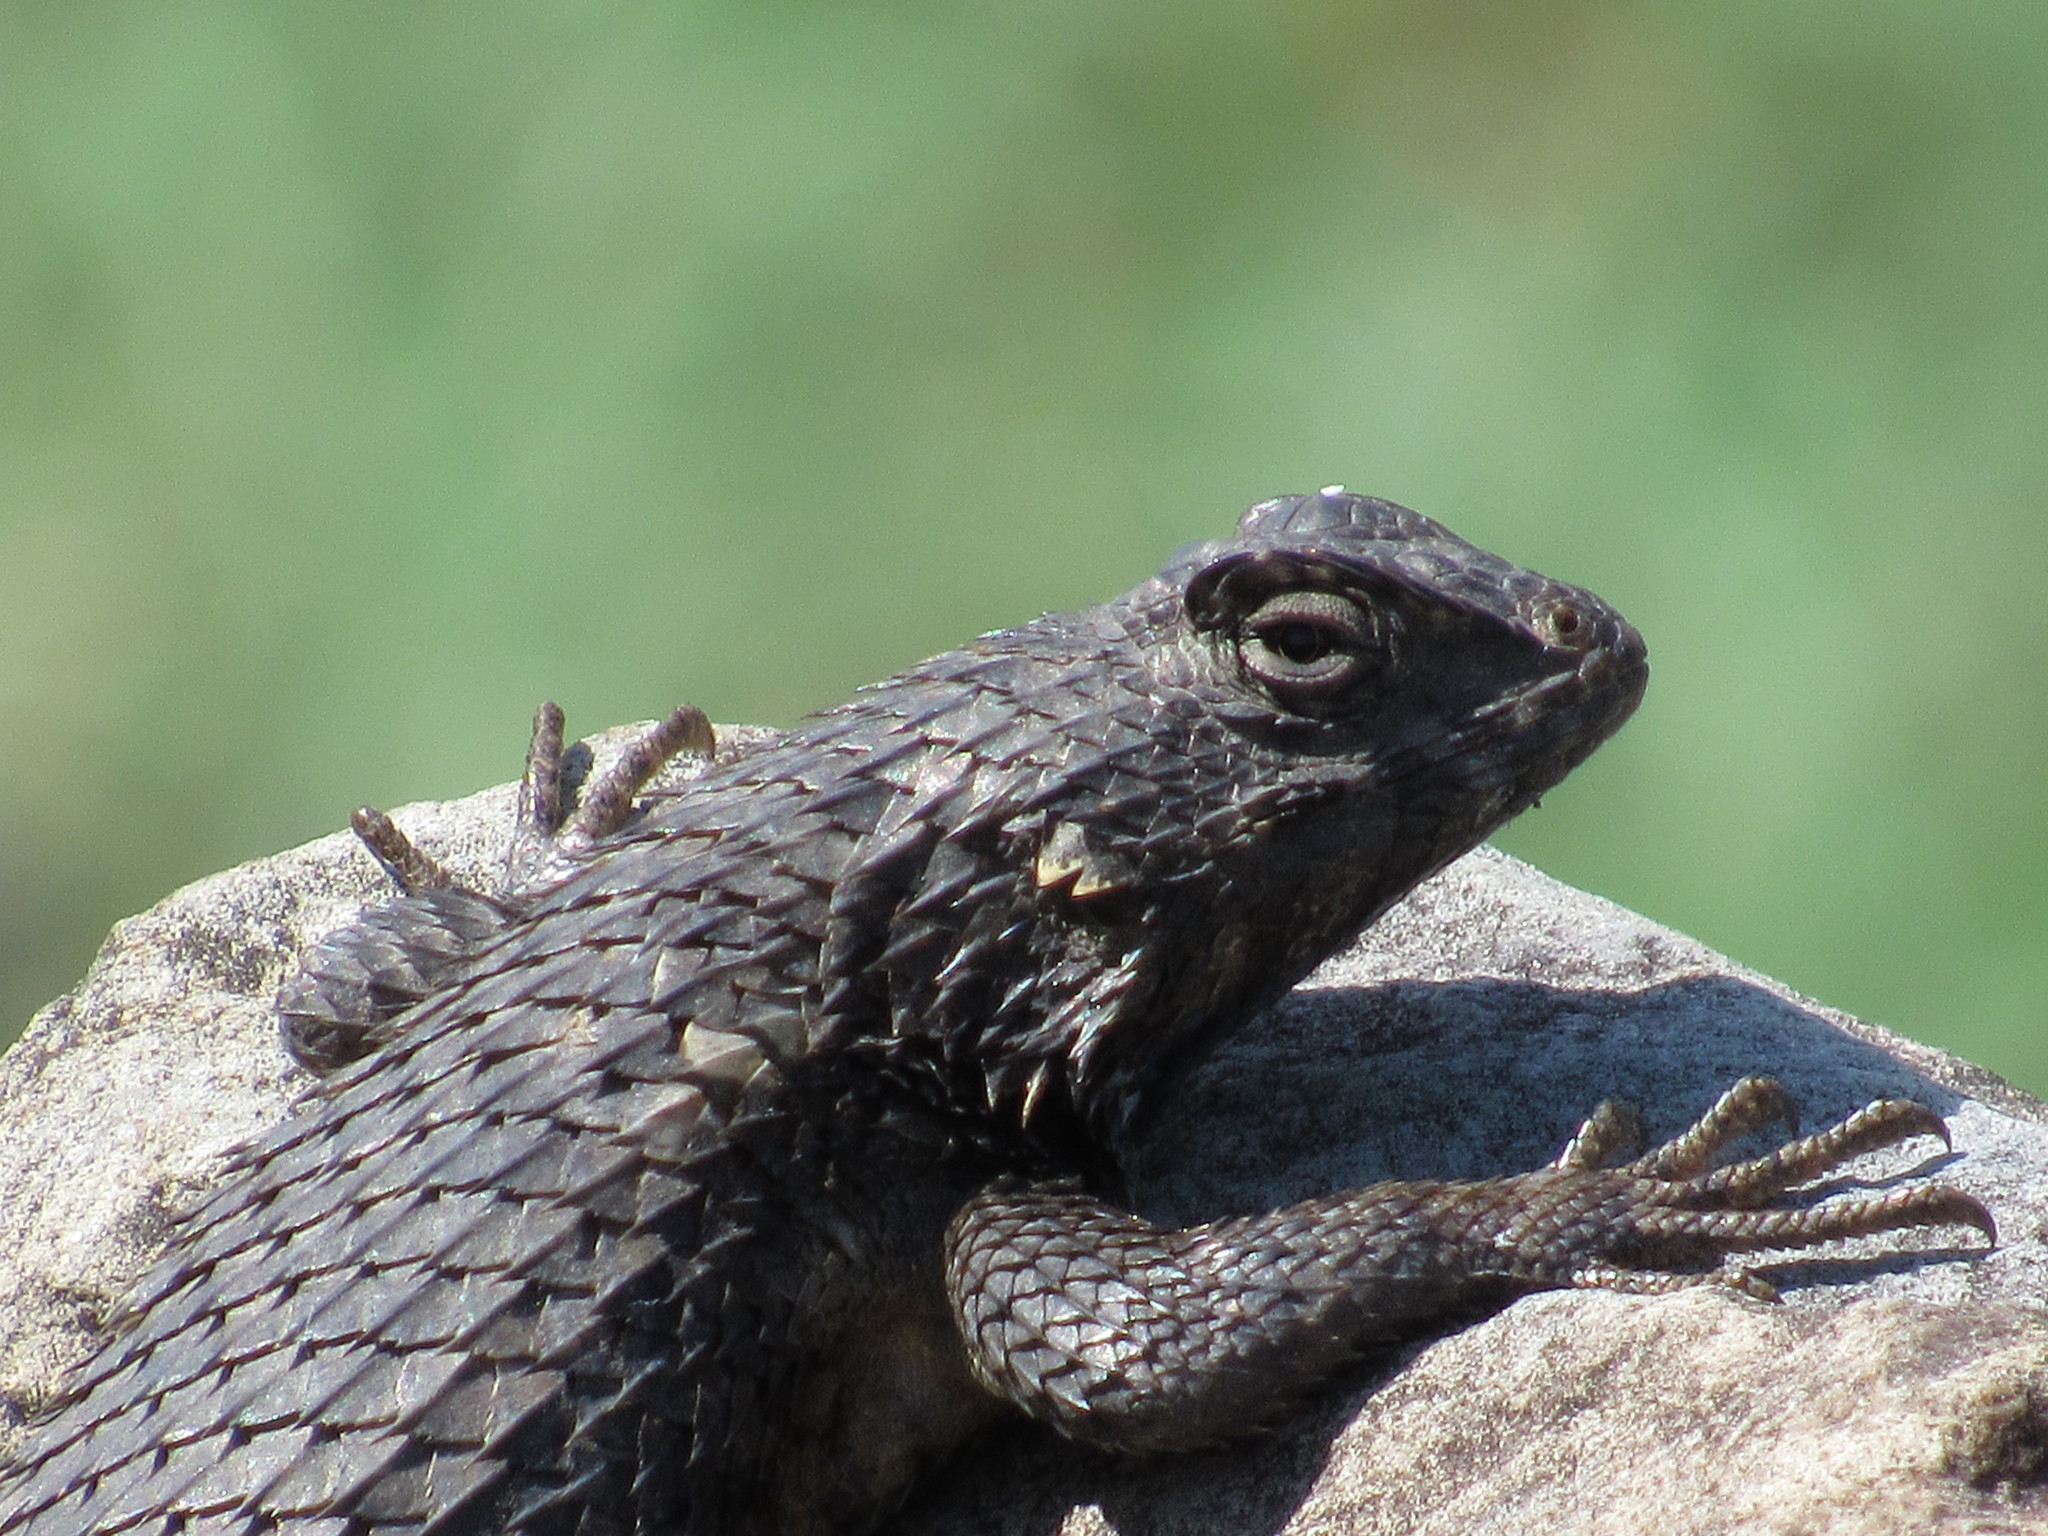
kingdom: Animalia
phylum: Chordata
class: Squamata
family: Phrynosomatidae
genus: Sceloporus
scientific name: Sceloporus spinosus
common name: Blue-spotted spiny lizard [caeruleopunctatus]
